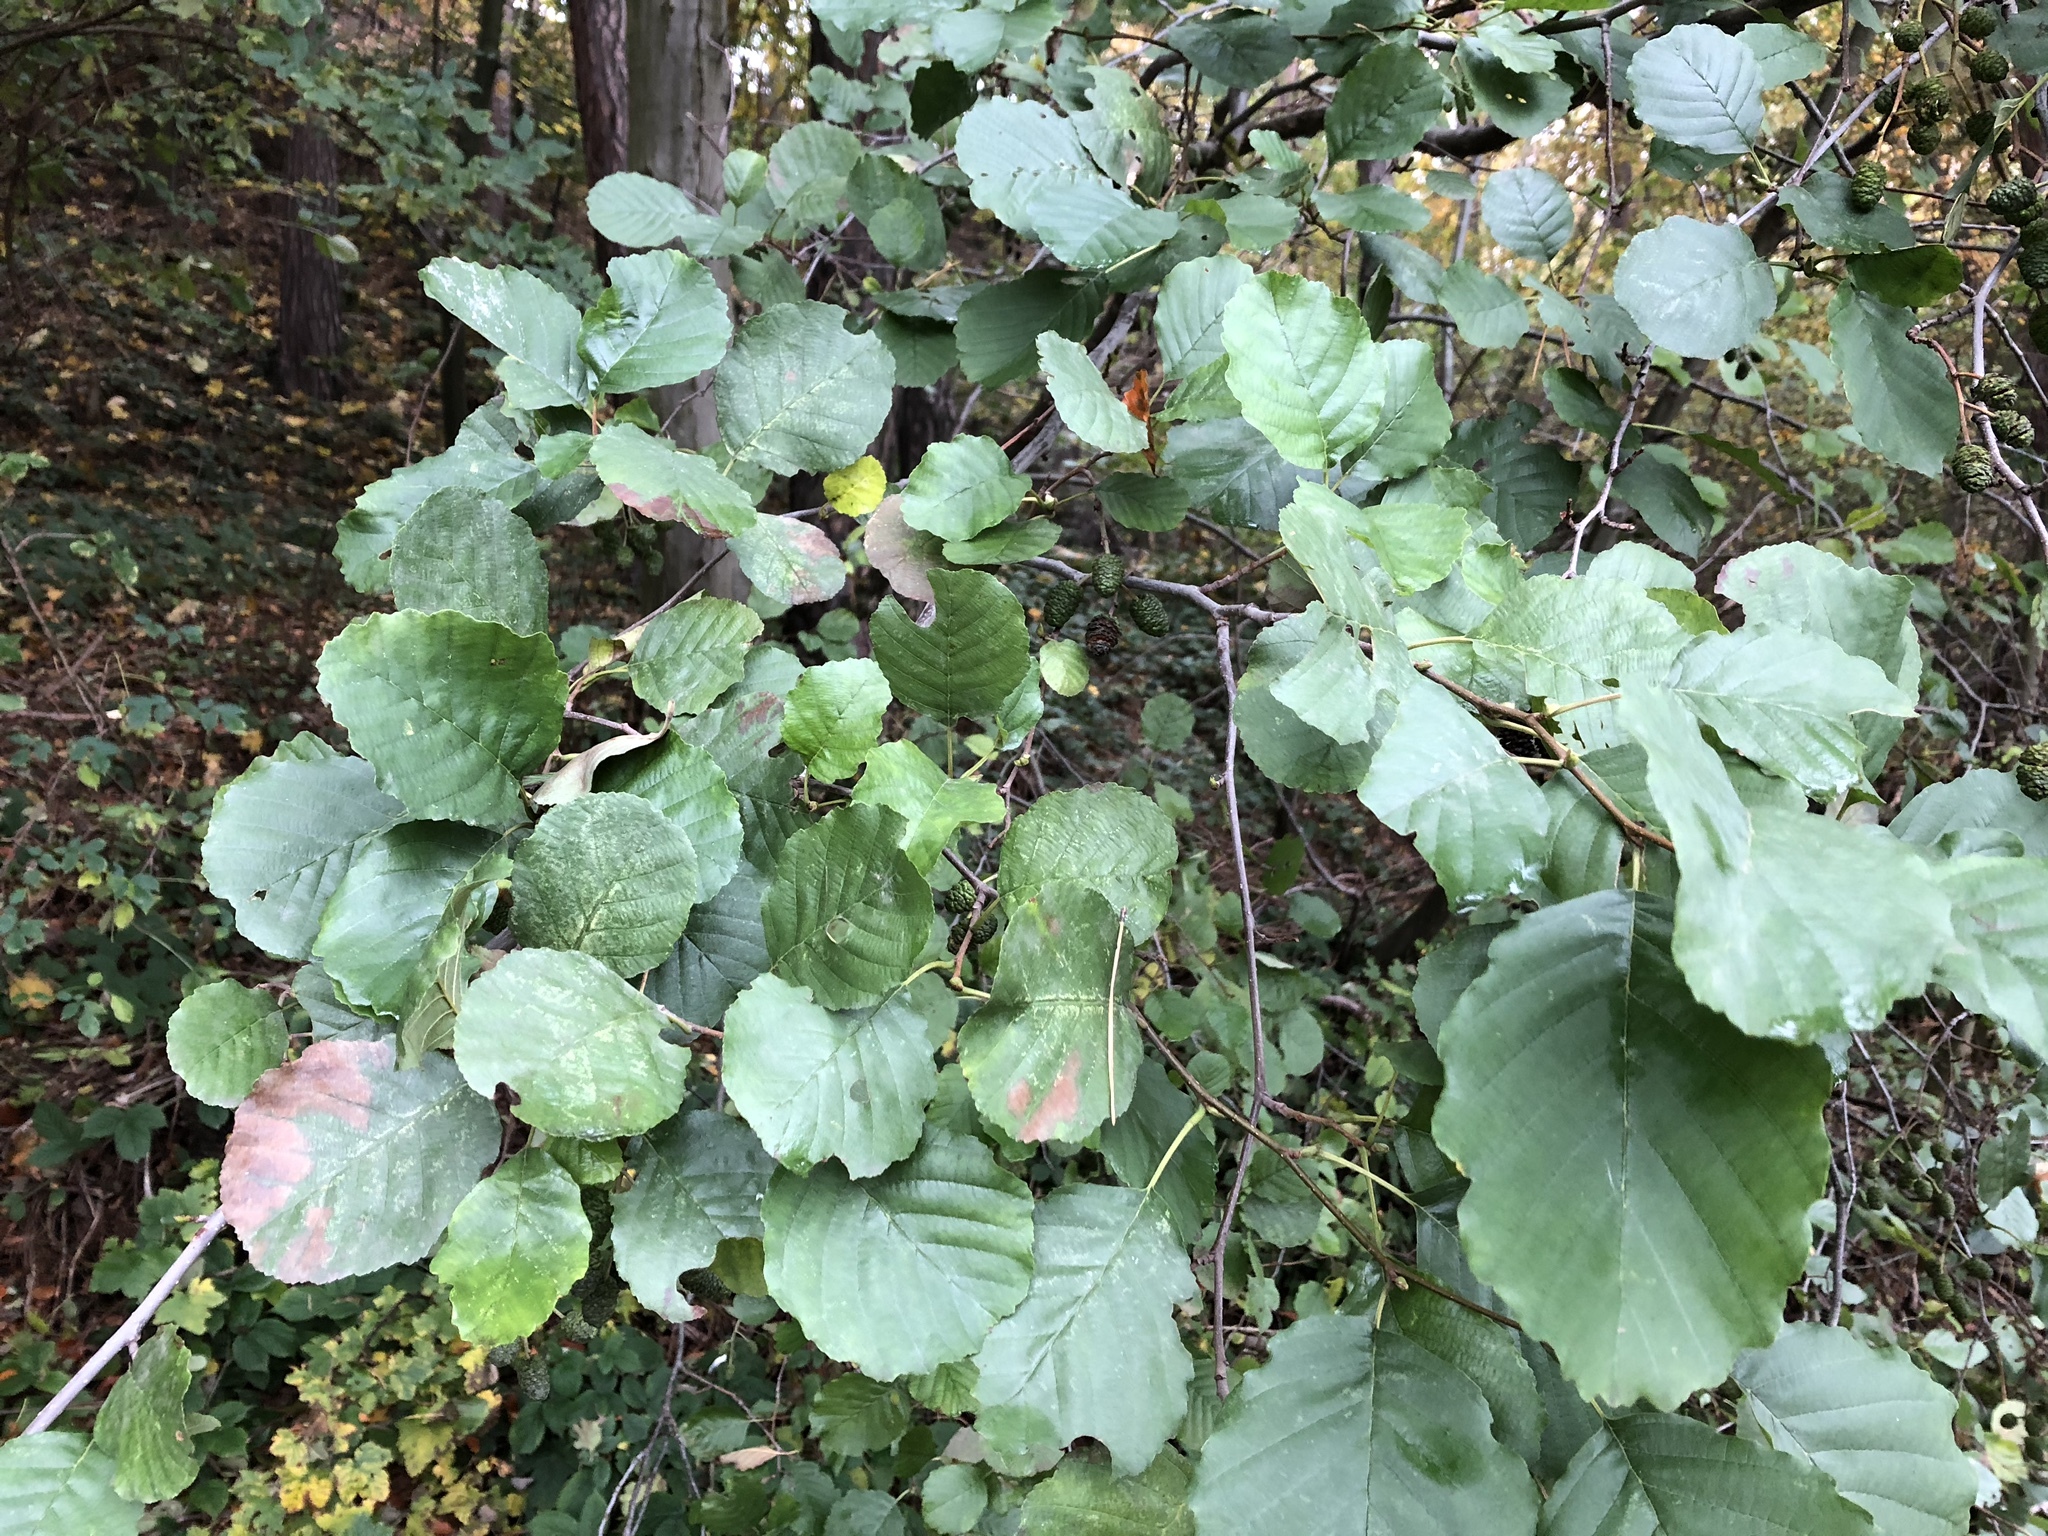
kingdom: Plantae
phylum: Tracheophyta
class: Magnoliopsida
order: Fagales
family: Betulaceae
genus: Alnus
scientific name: Alnus glutinosa
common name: Black alder
